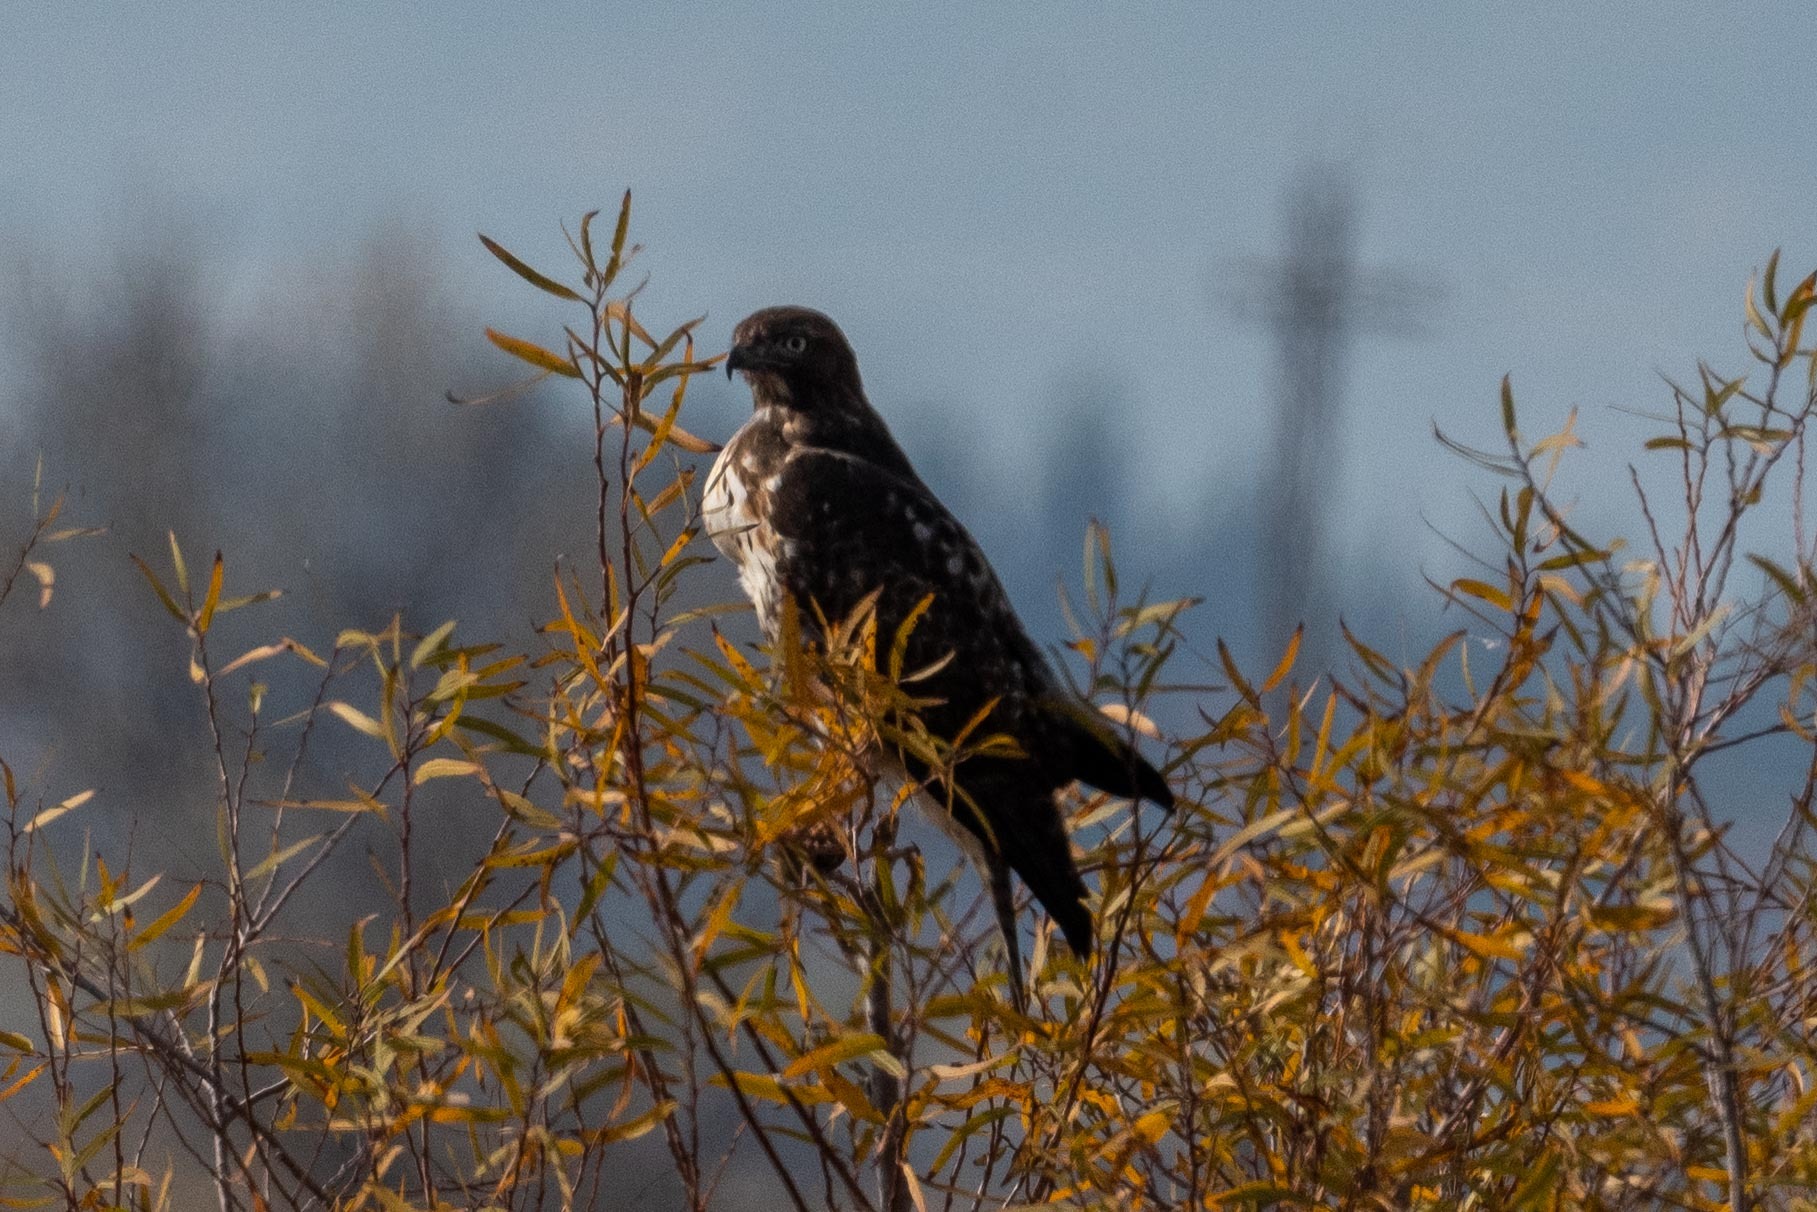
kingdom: Animalia
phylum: Chordata
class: Aves
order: Accipitriformes
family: Accipitridae
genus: Buteo
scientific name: Buteo jamaicensis
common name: Red-tailed hawk
